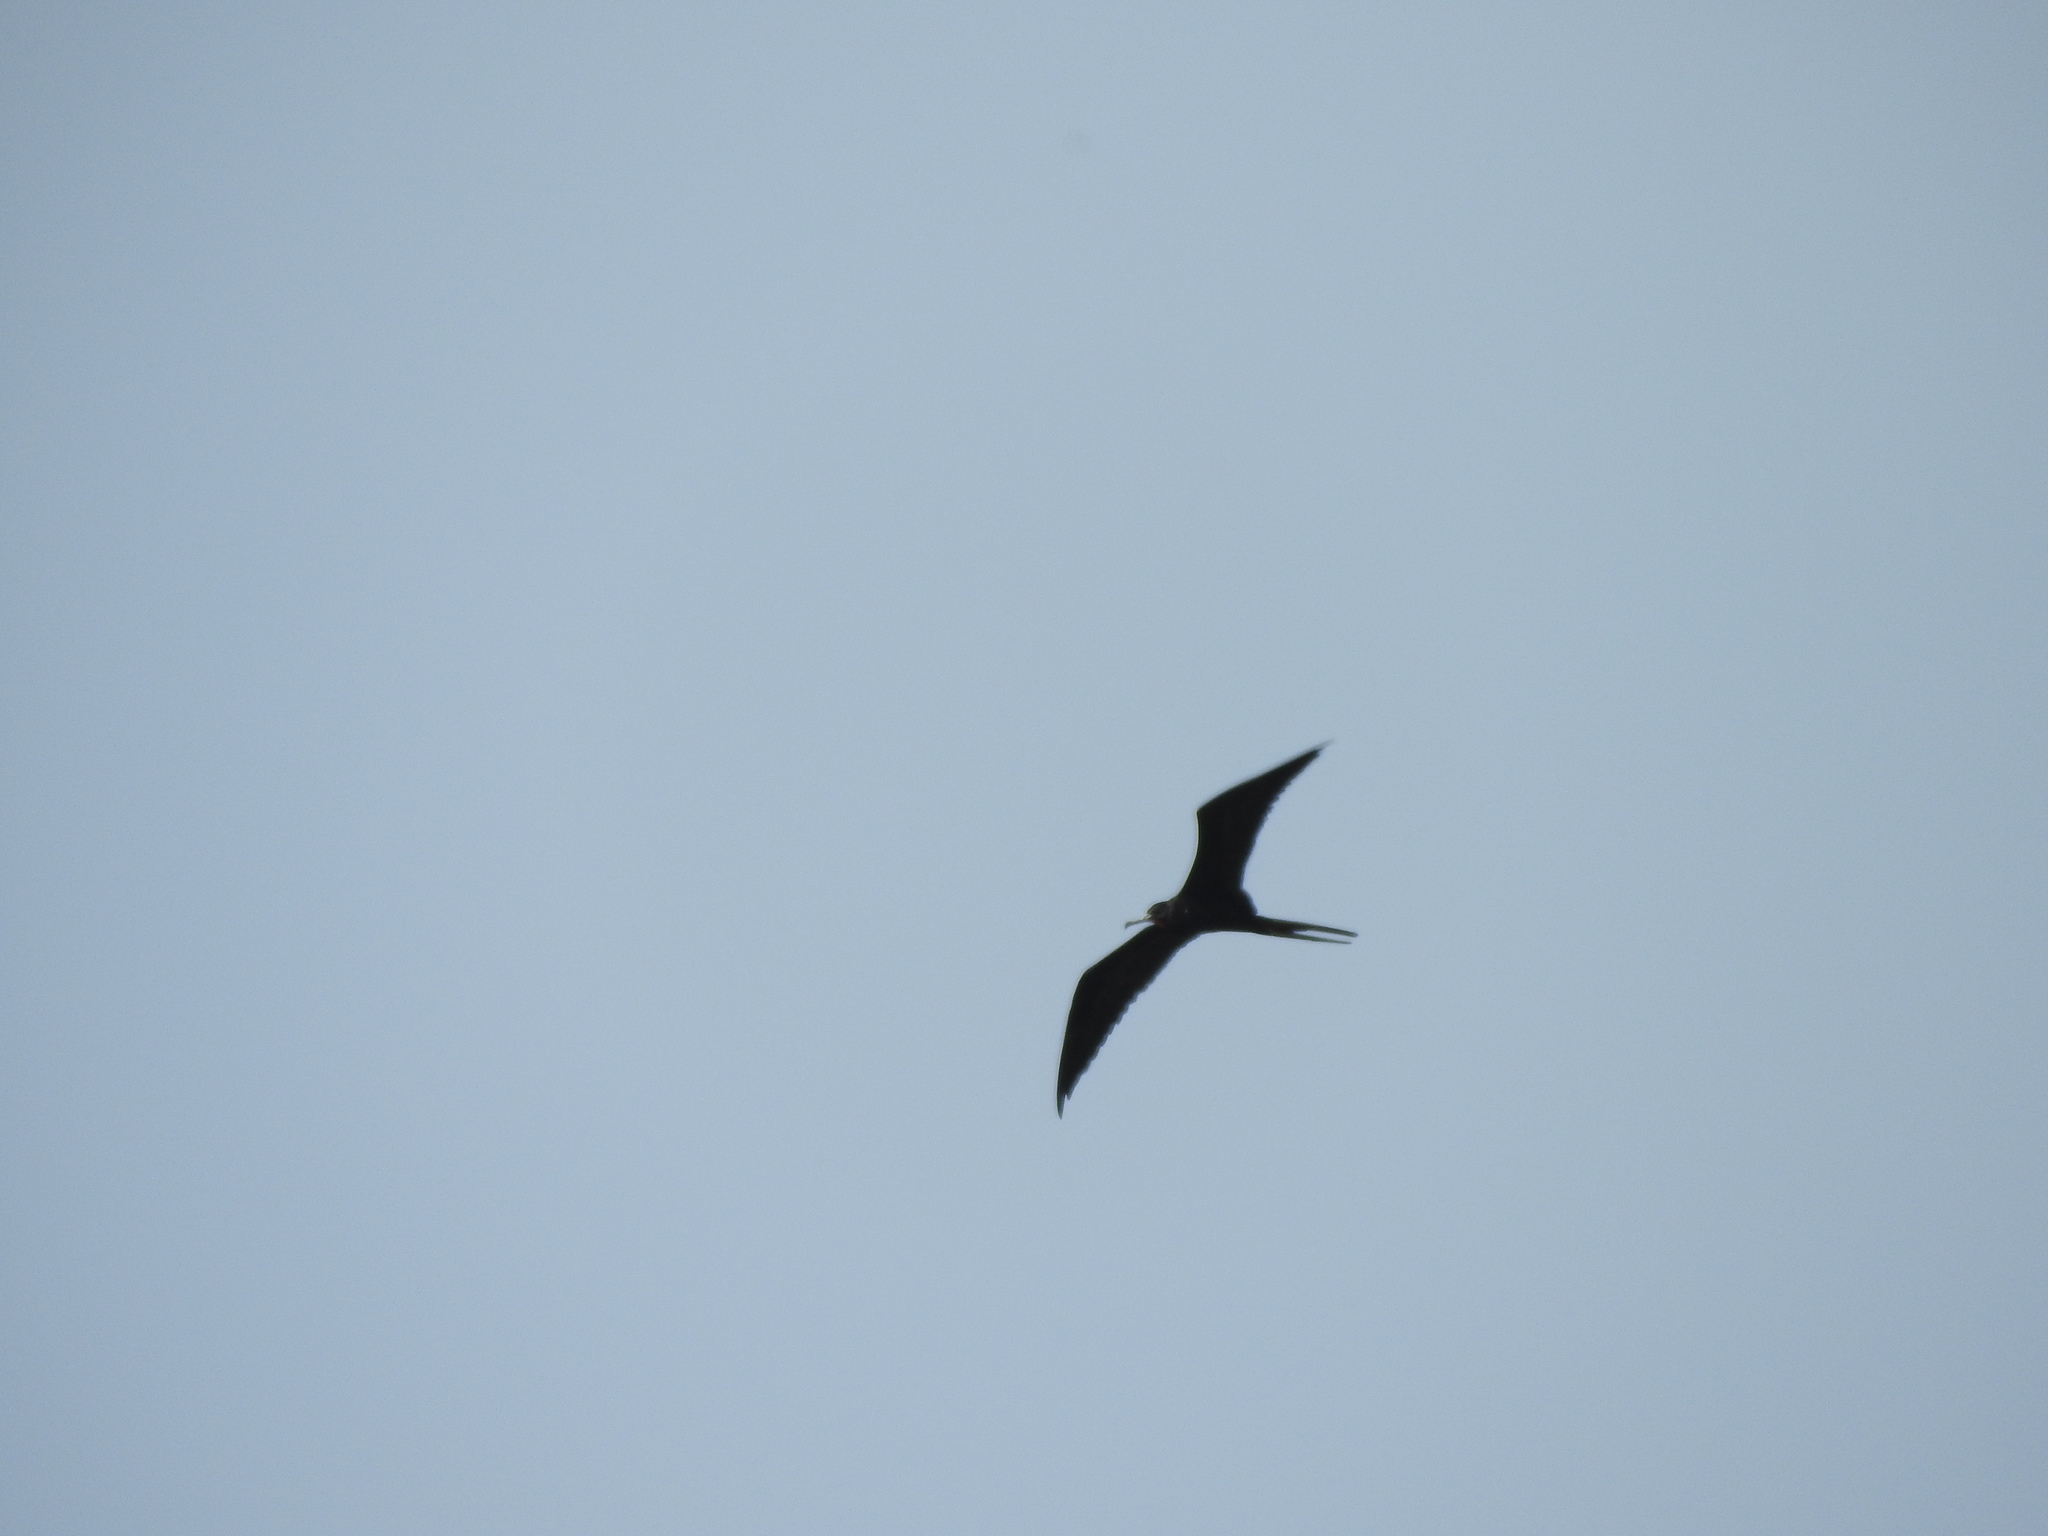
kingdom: Animalia
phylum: Chordata
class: Aves
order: Suliformes
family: Fregatidae
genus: Fregata
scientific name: Fregata magnificens
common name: Magnificent frigatebird
